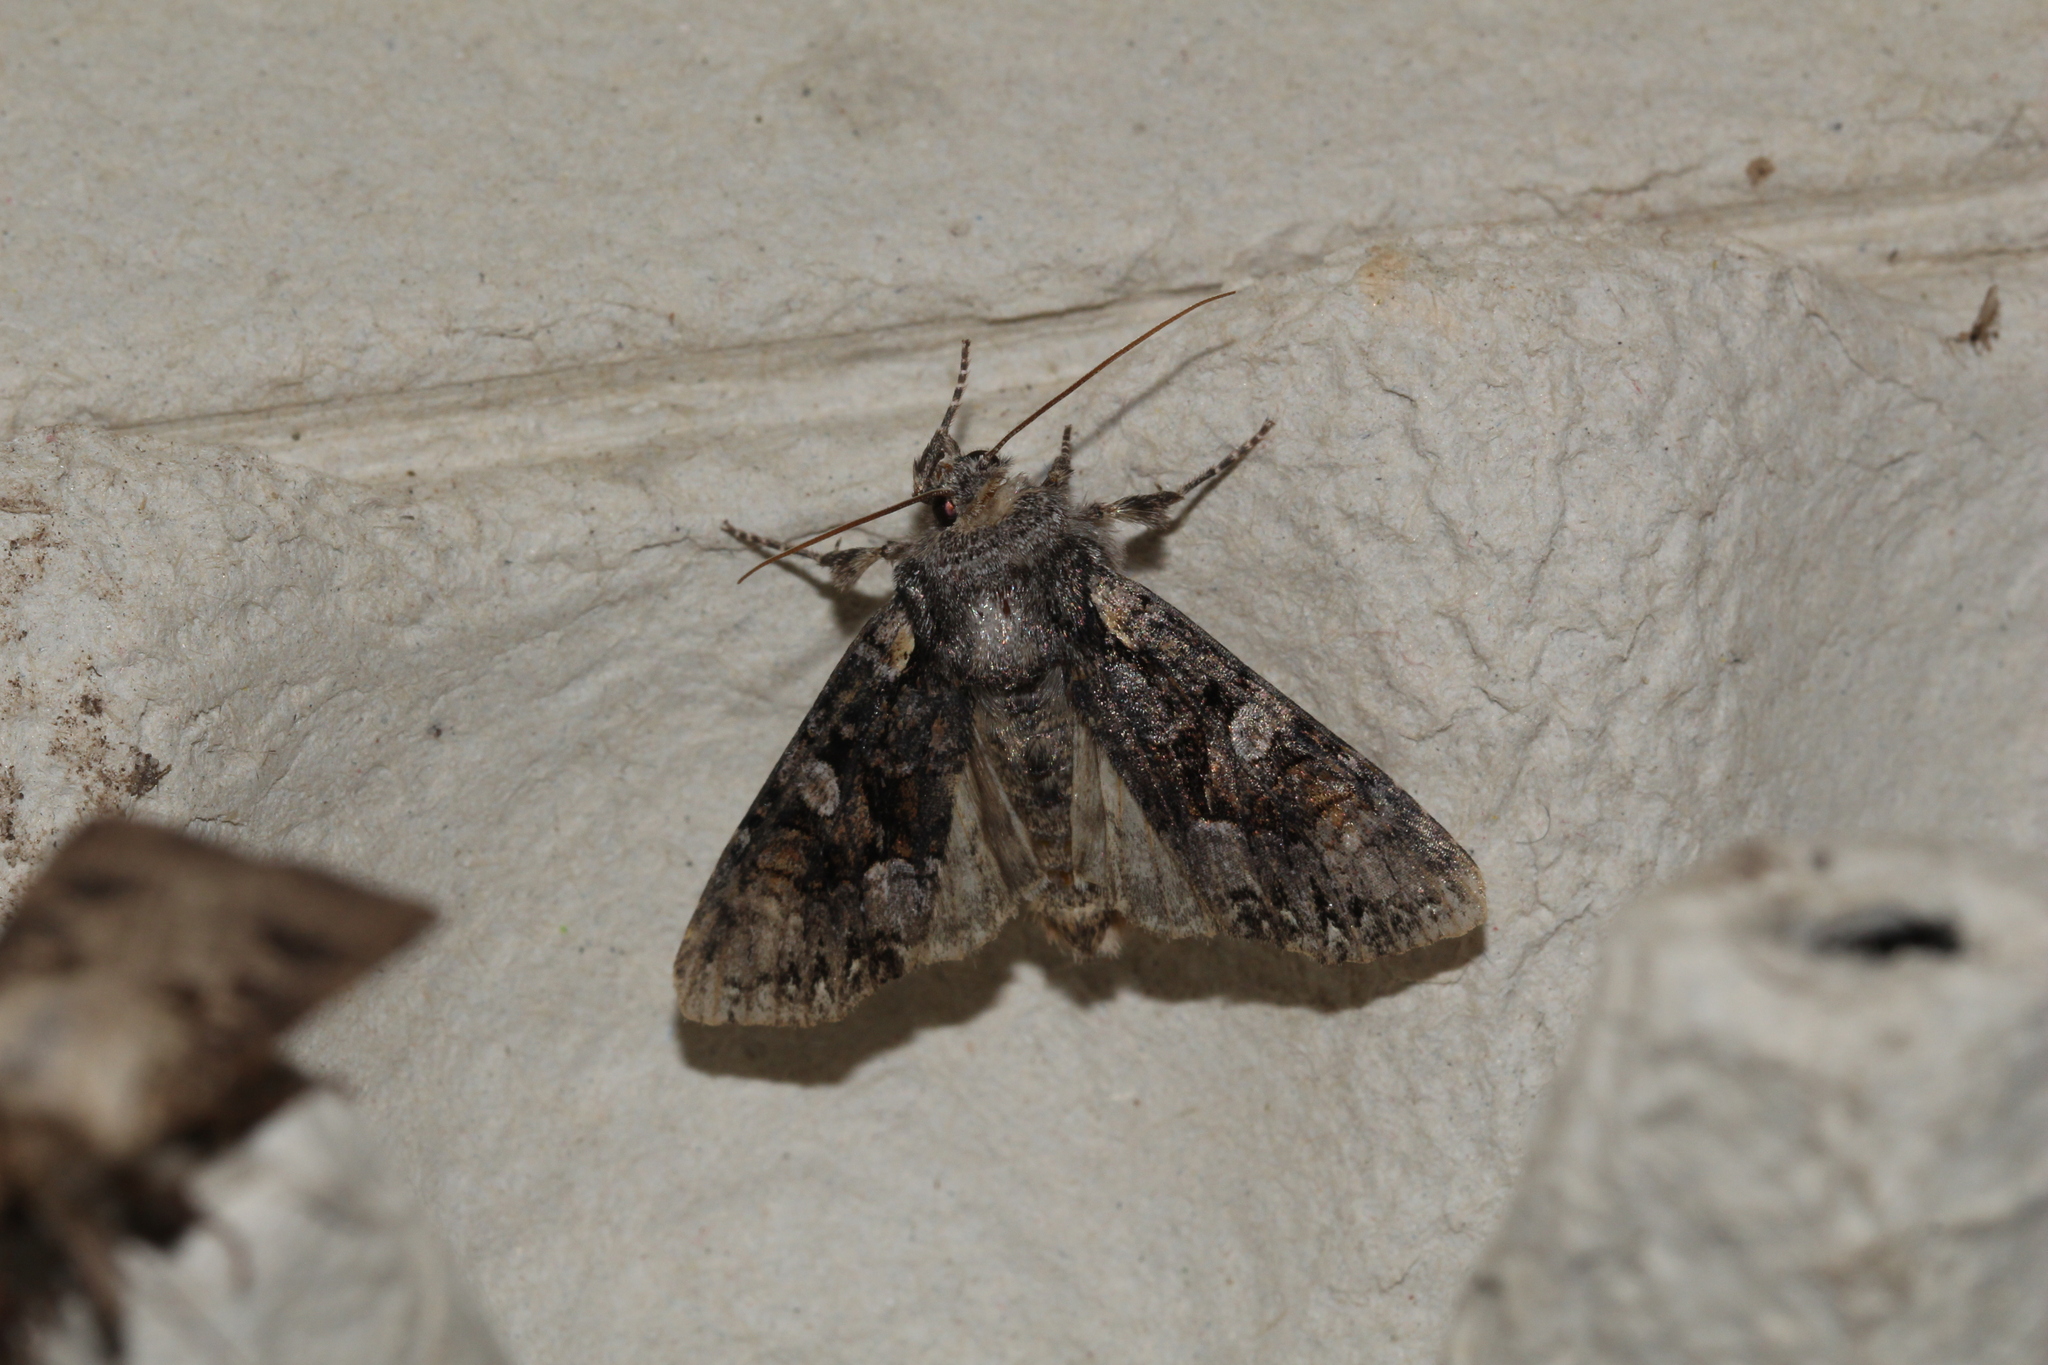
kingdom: Animalia
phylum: Arthropoda
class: Insecta
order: Lepidoptera
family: Noctuidae
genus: Lacanobia
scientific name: Lacanobia contigua
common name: Beautiful brocade
